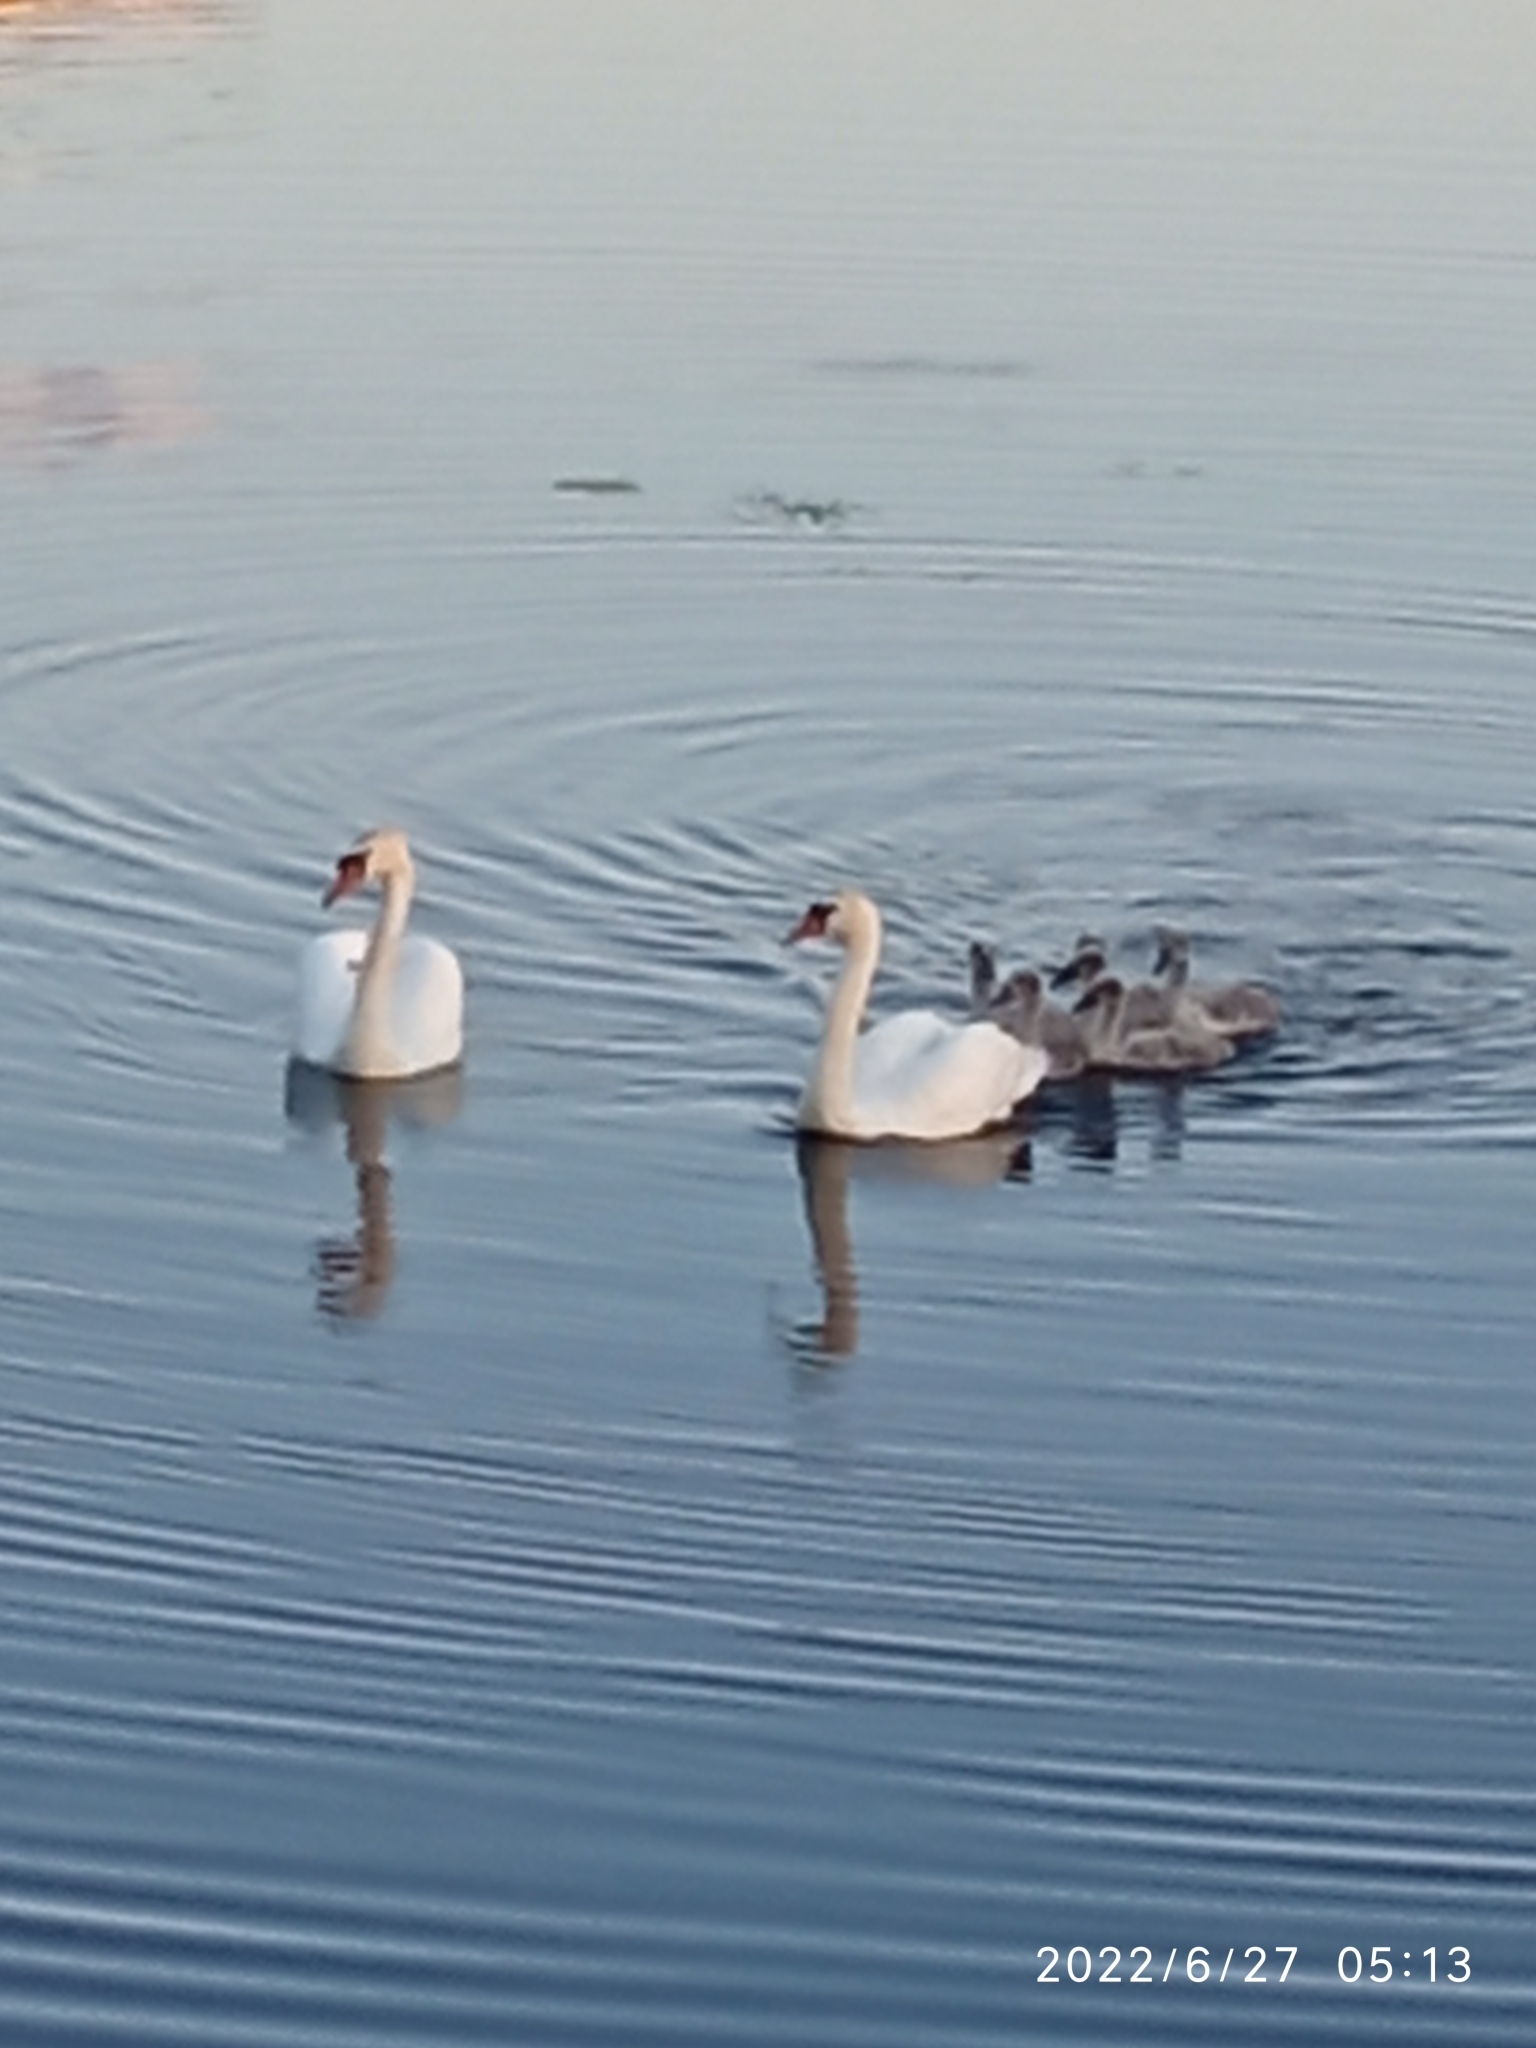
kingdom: Animalia
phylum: Chordata
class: Aves
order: Anseriformes
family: Anatidae
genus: Cygnus
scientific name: Cygnus olor
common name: Mute swan
